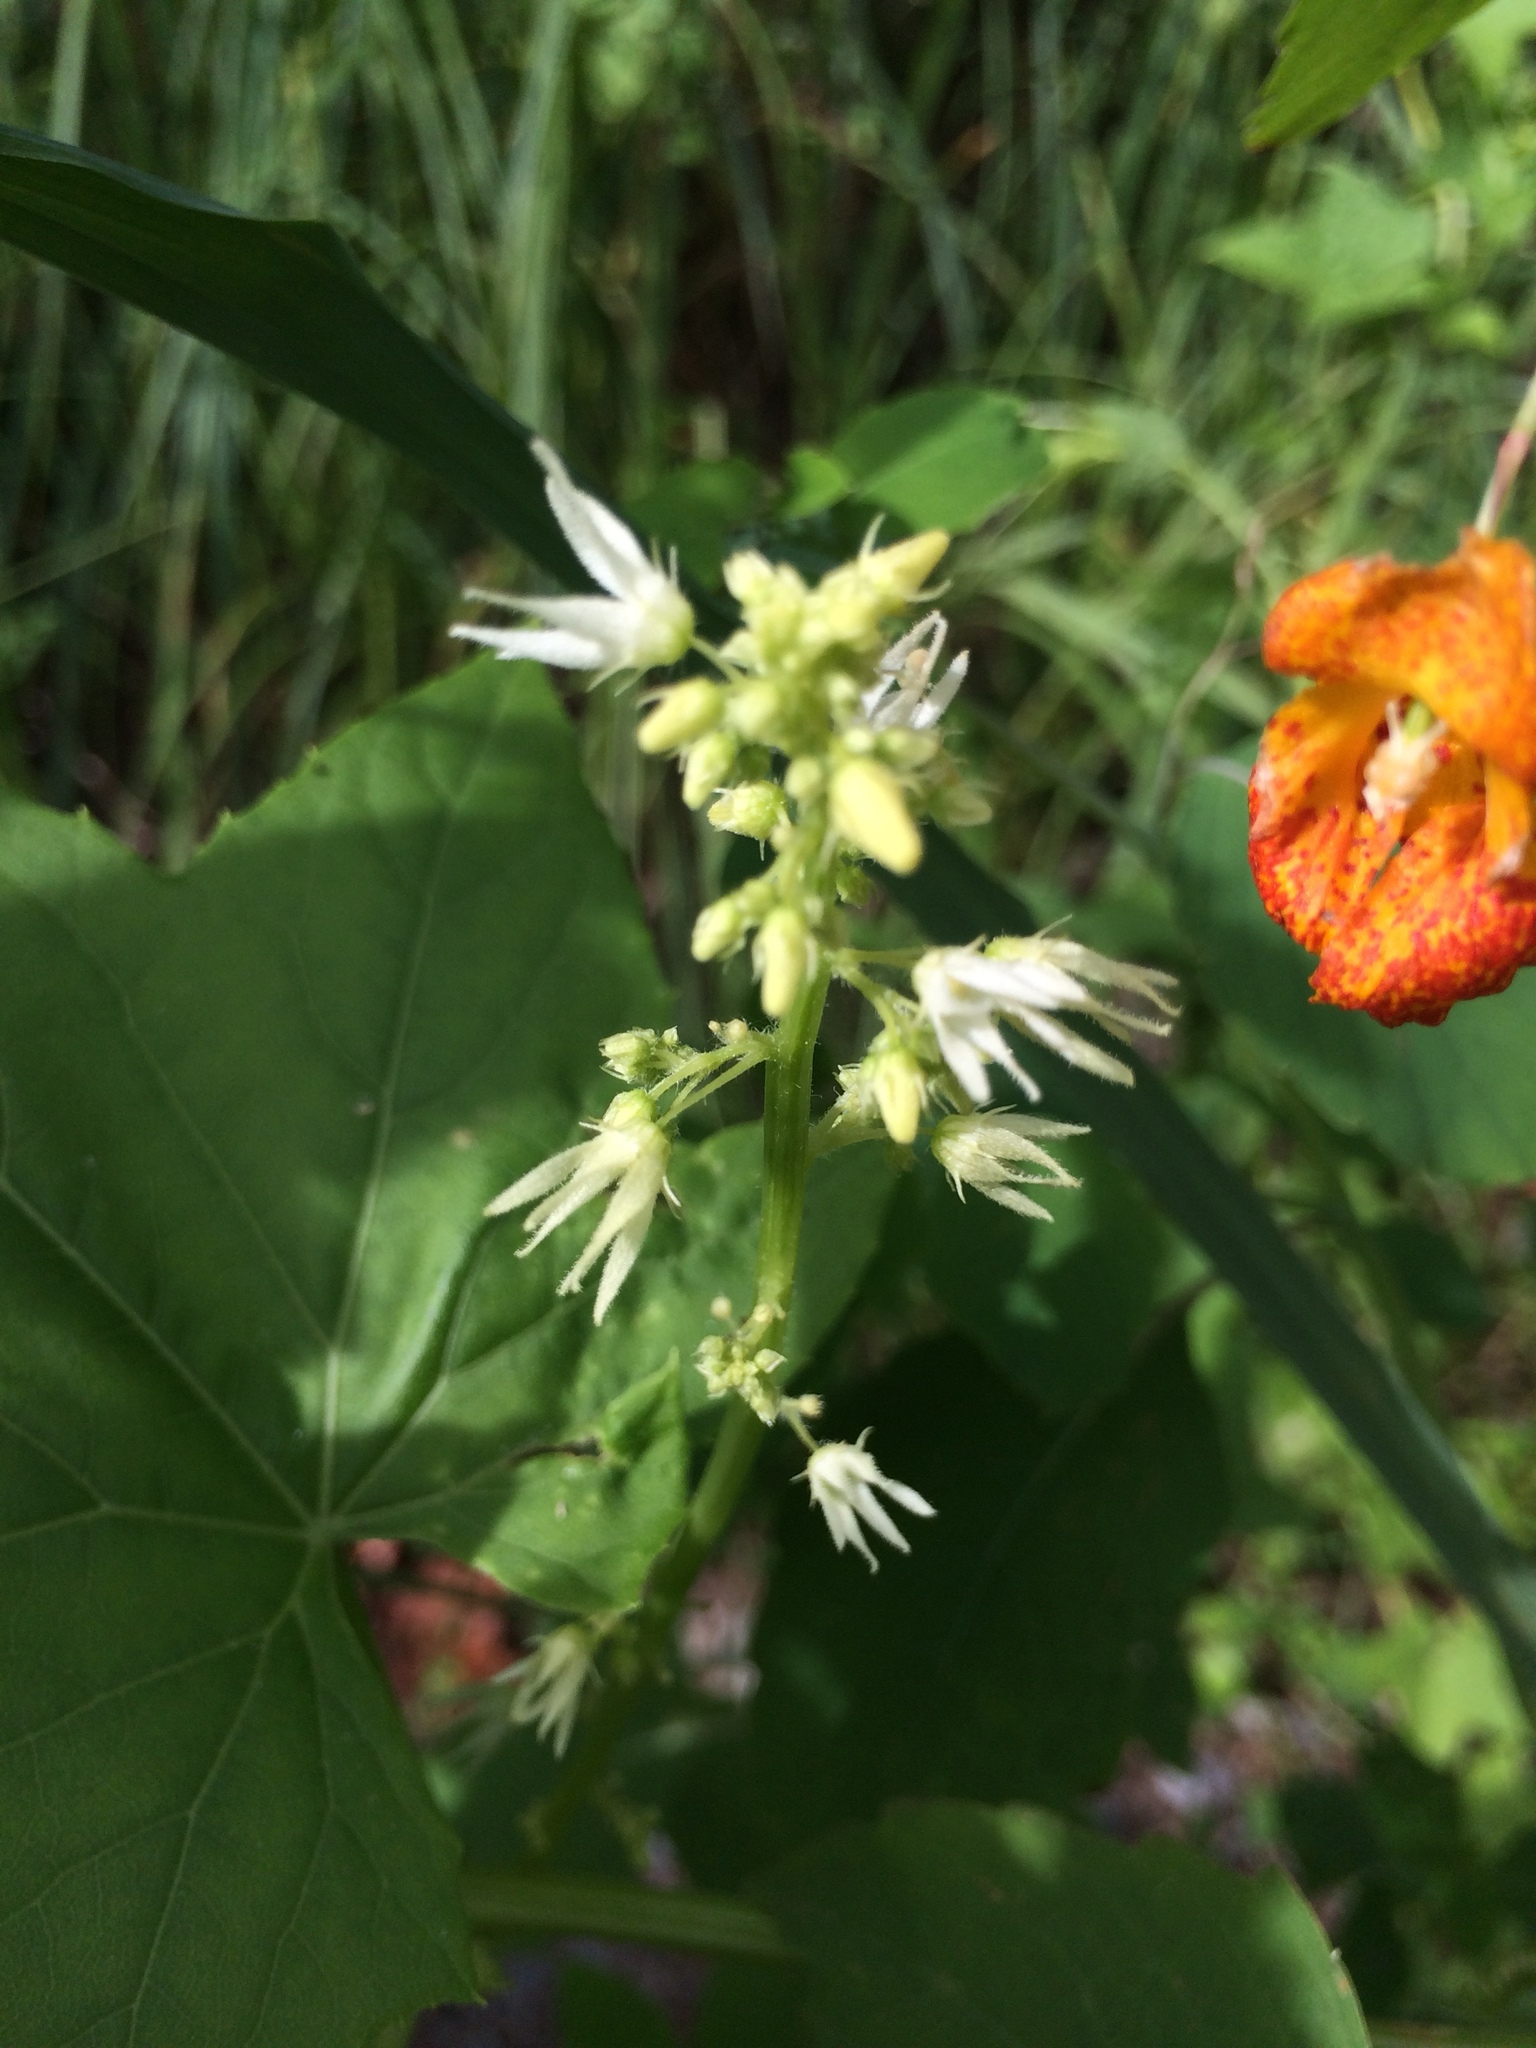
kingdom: Plantae
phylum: Tracheophyta
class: Magnoliopsida
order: Cucurbitales
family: Cucurbitaceae
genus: Echinocystis
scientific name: Echinocystis lobata
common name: Wild cucumber
